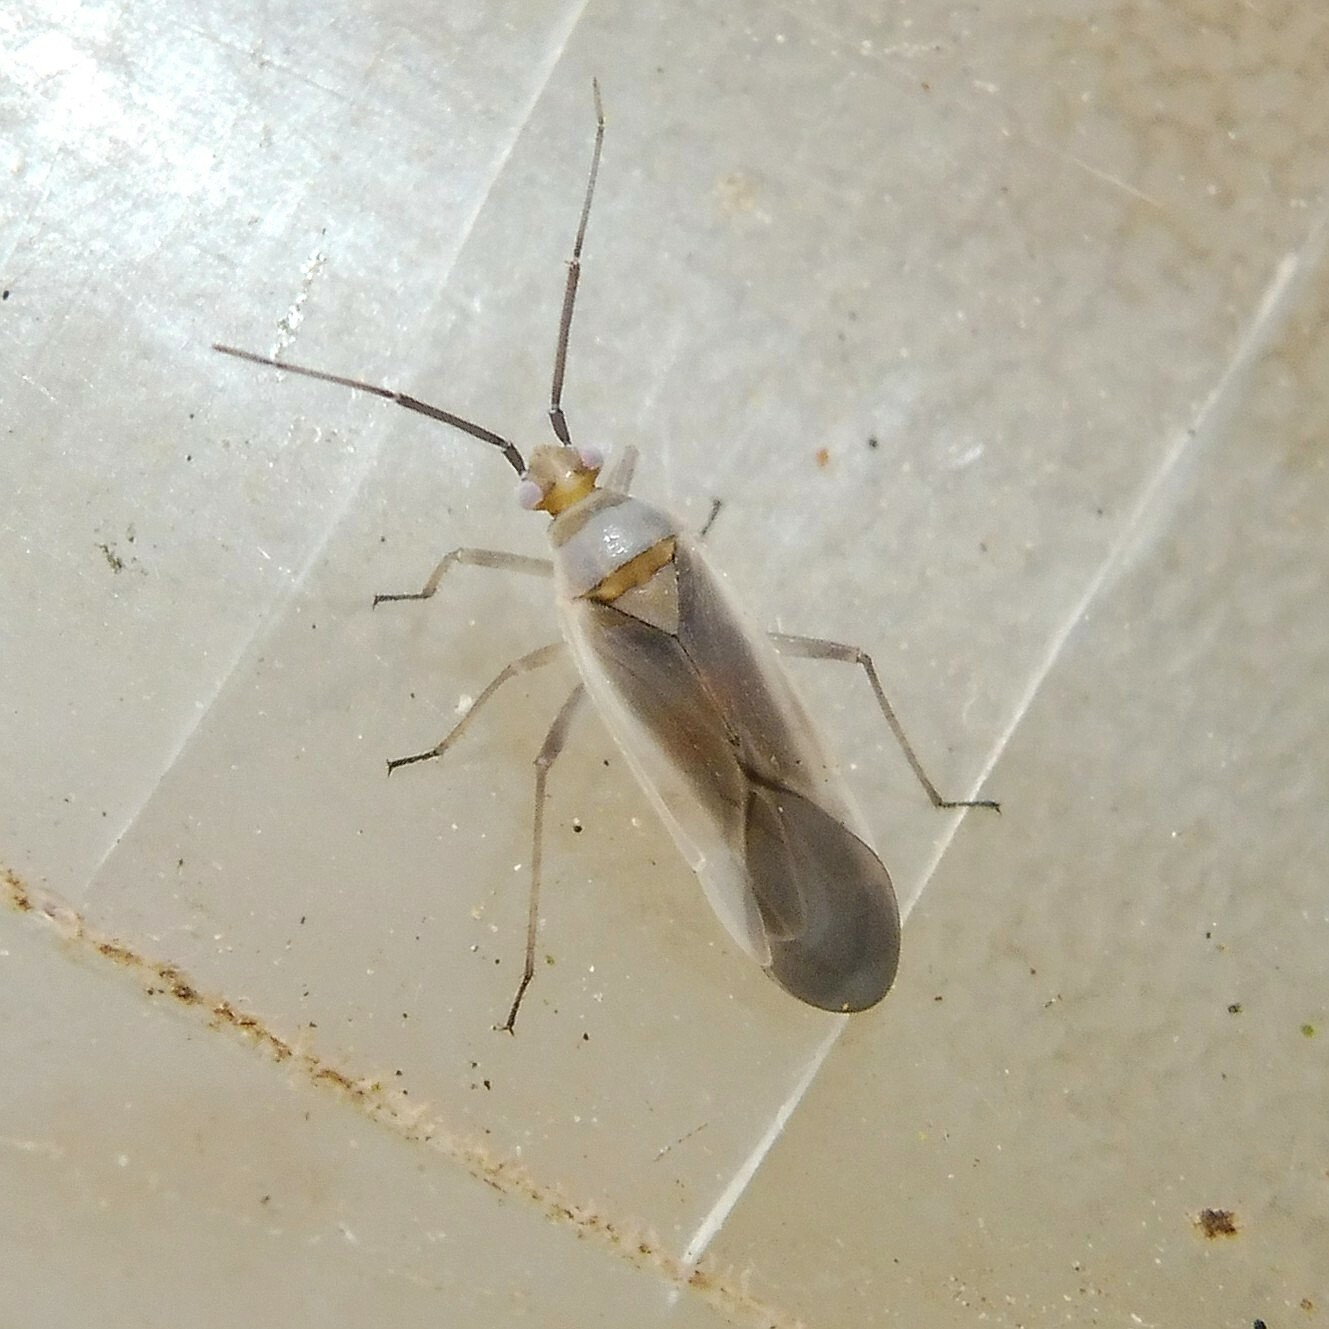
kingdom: Animalia
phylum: Arthropoda
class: Insecta
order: Hemiptera
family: Miridae
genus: Lopus
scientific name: Lopus decolor
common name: Plant bug
